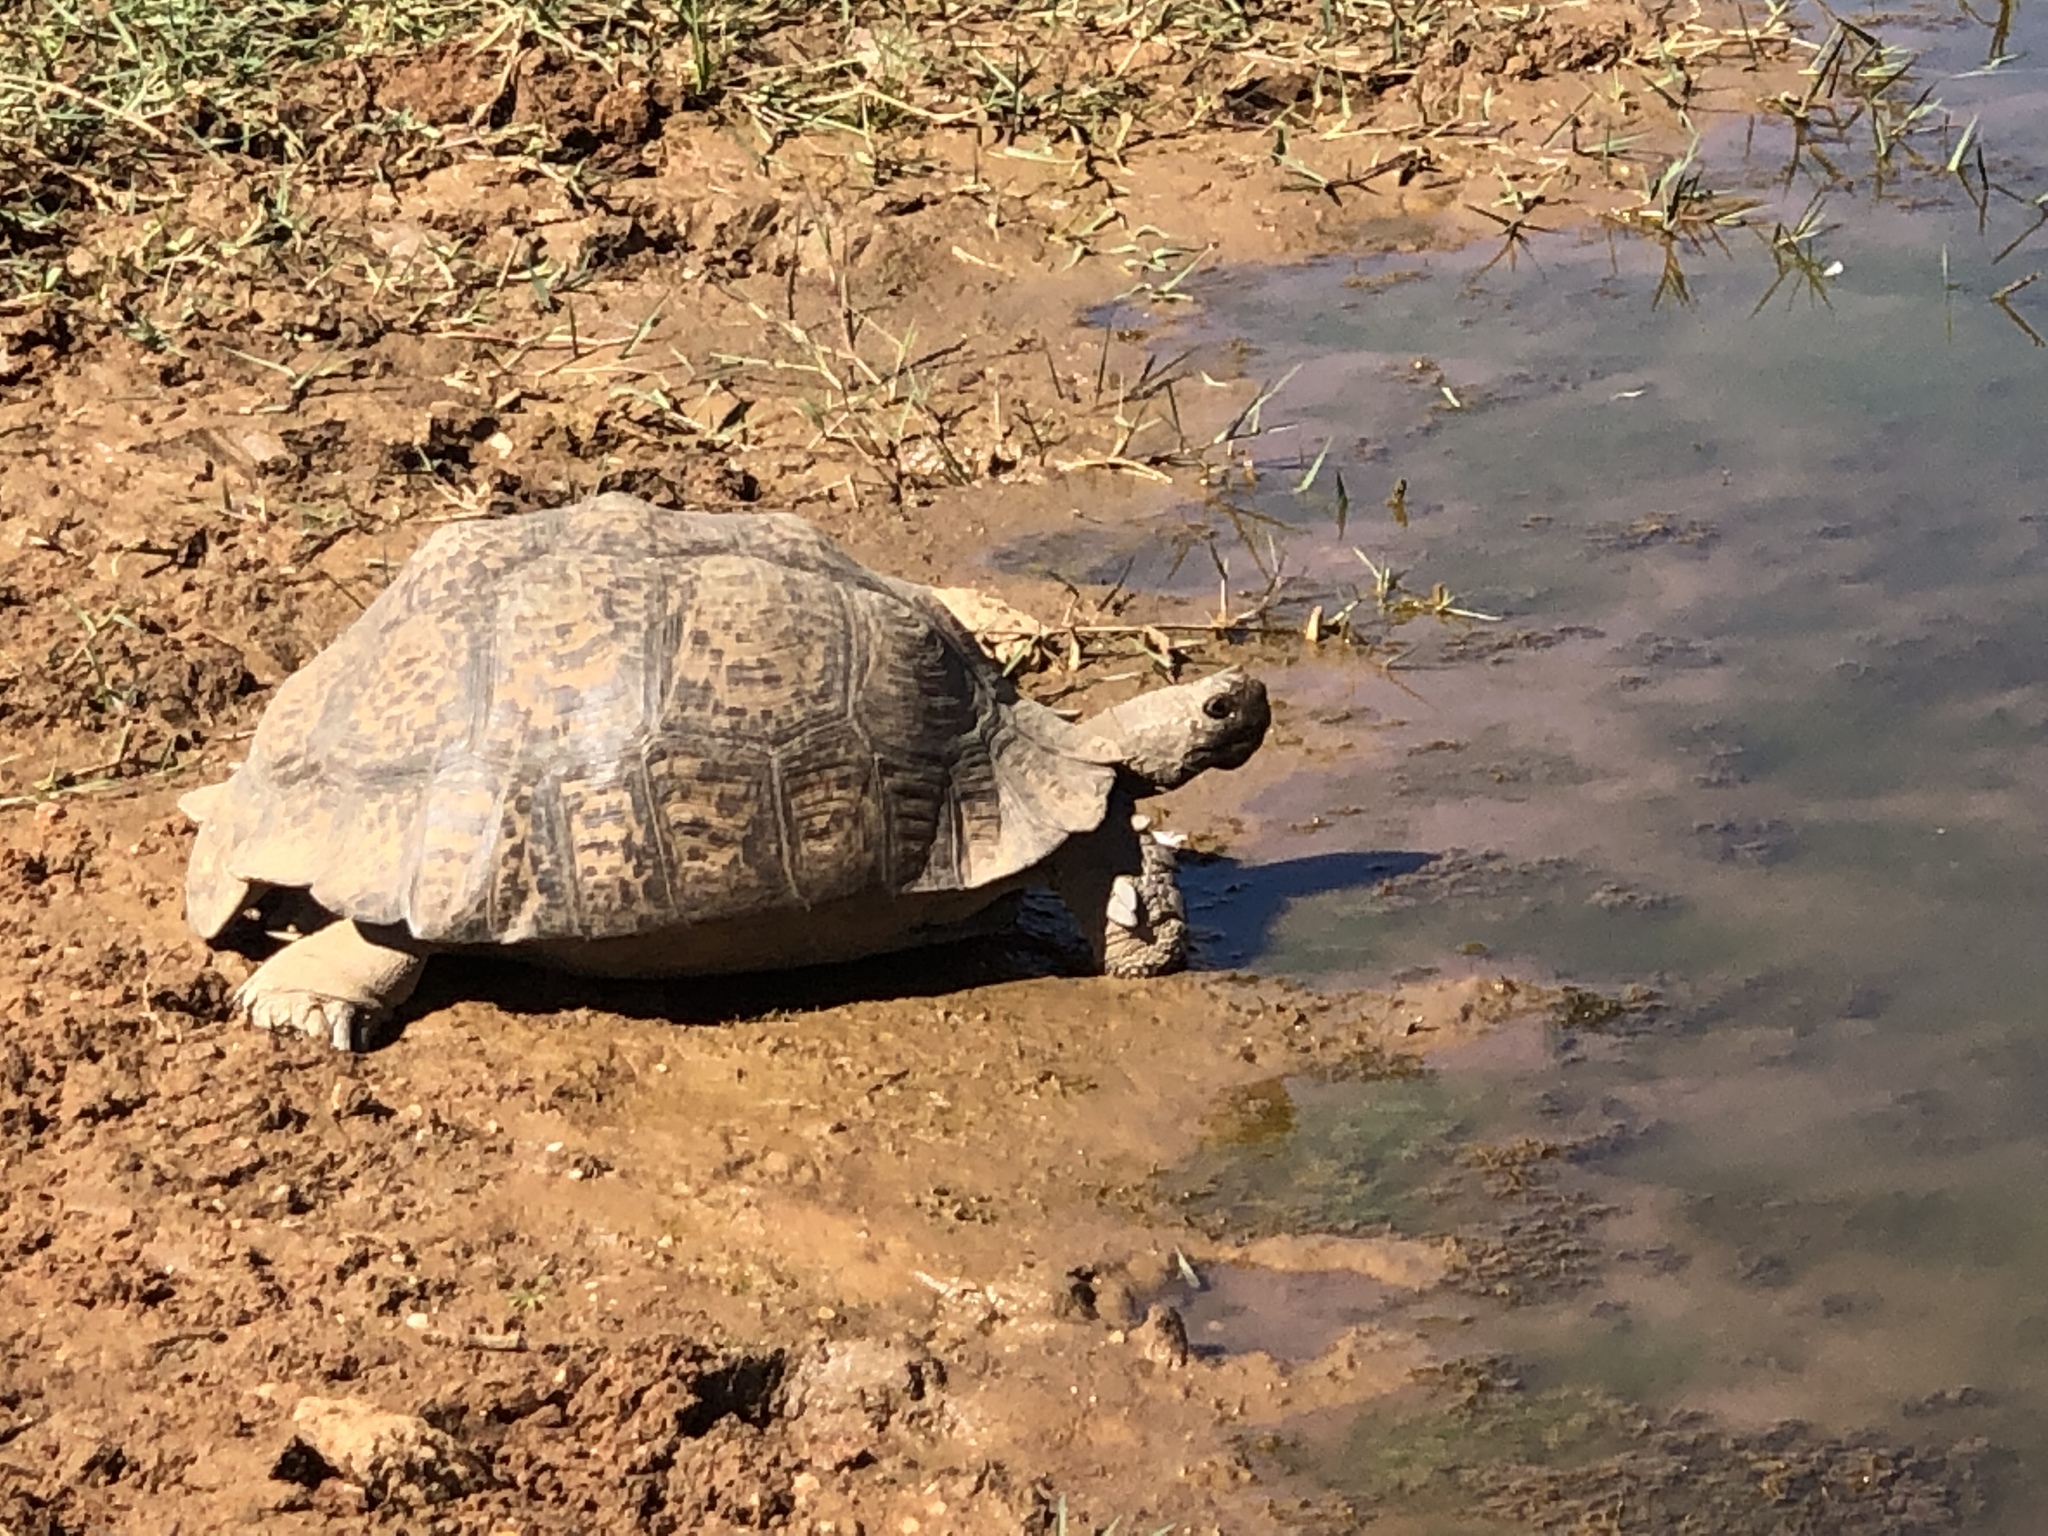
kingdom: Animalia
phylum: Chordata
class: Testudines
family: Testudinidae
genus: Stigmochelys
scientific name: Stigmochelys pardalis
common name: Leopard tortoise
